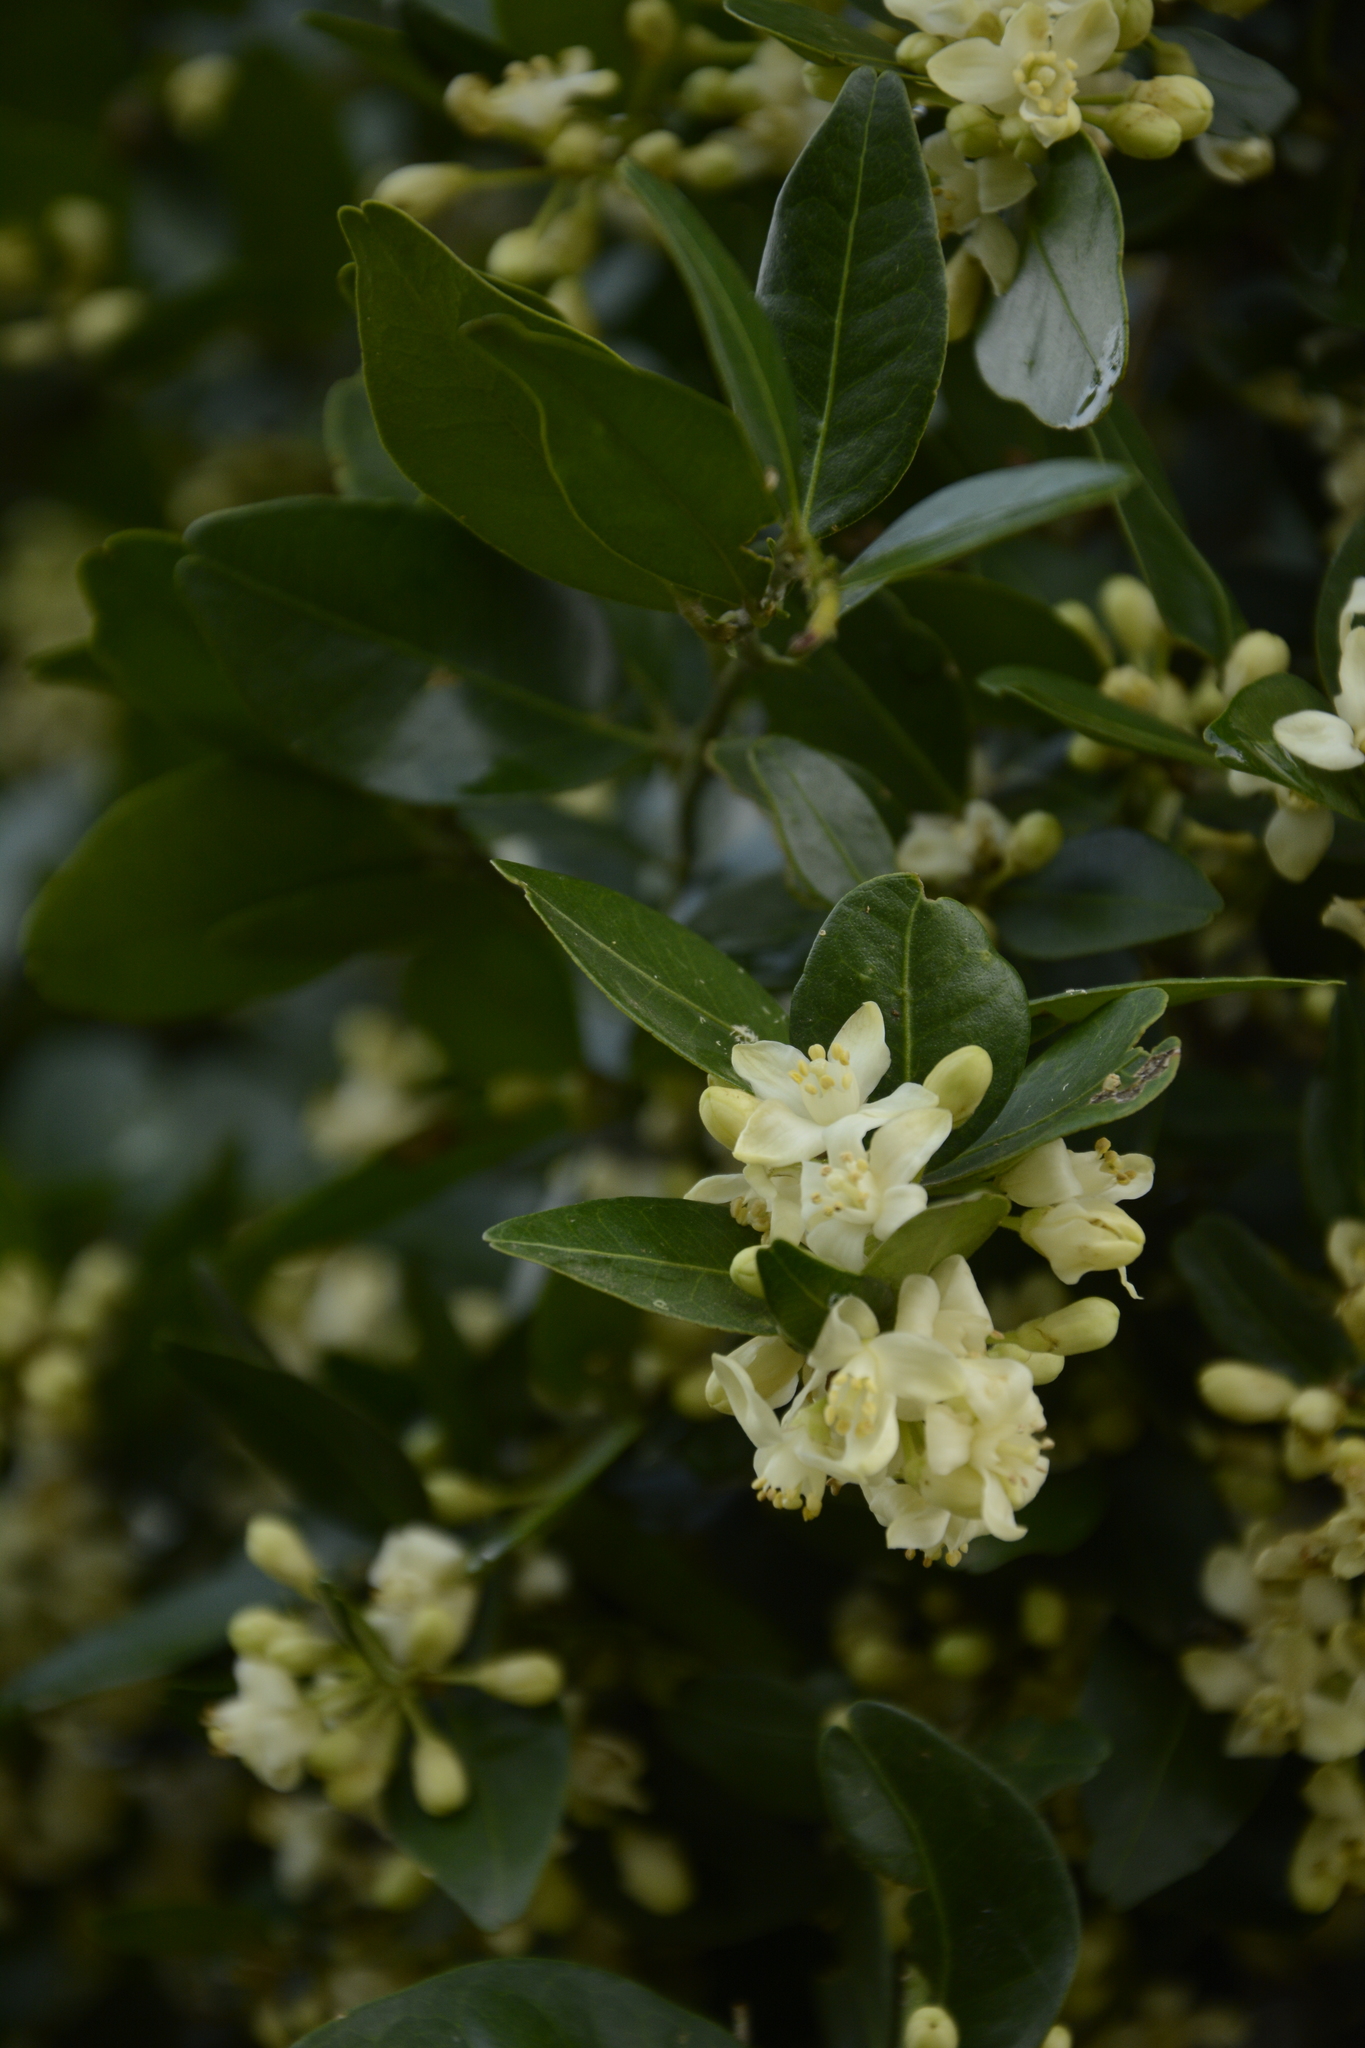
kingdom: Plantae
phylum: Tracheophyta
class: Magnoliopsida
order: Sapindales
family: Rutaceae
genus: Atalantia
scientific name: Atalantia monophylla
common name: Indian-atalantia
